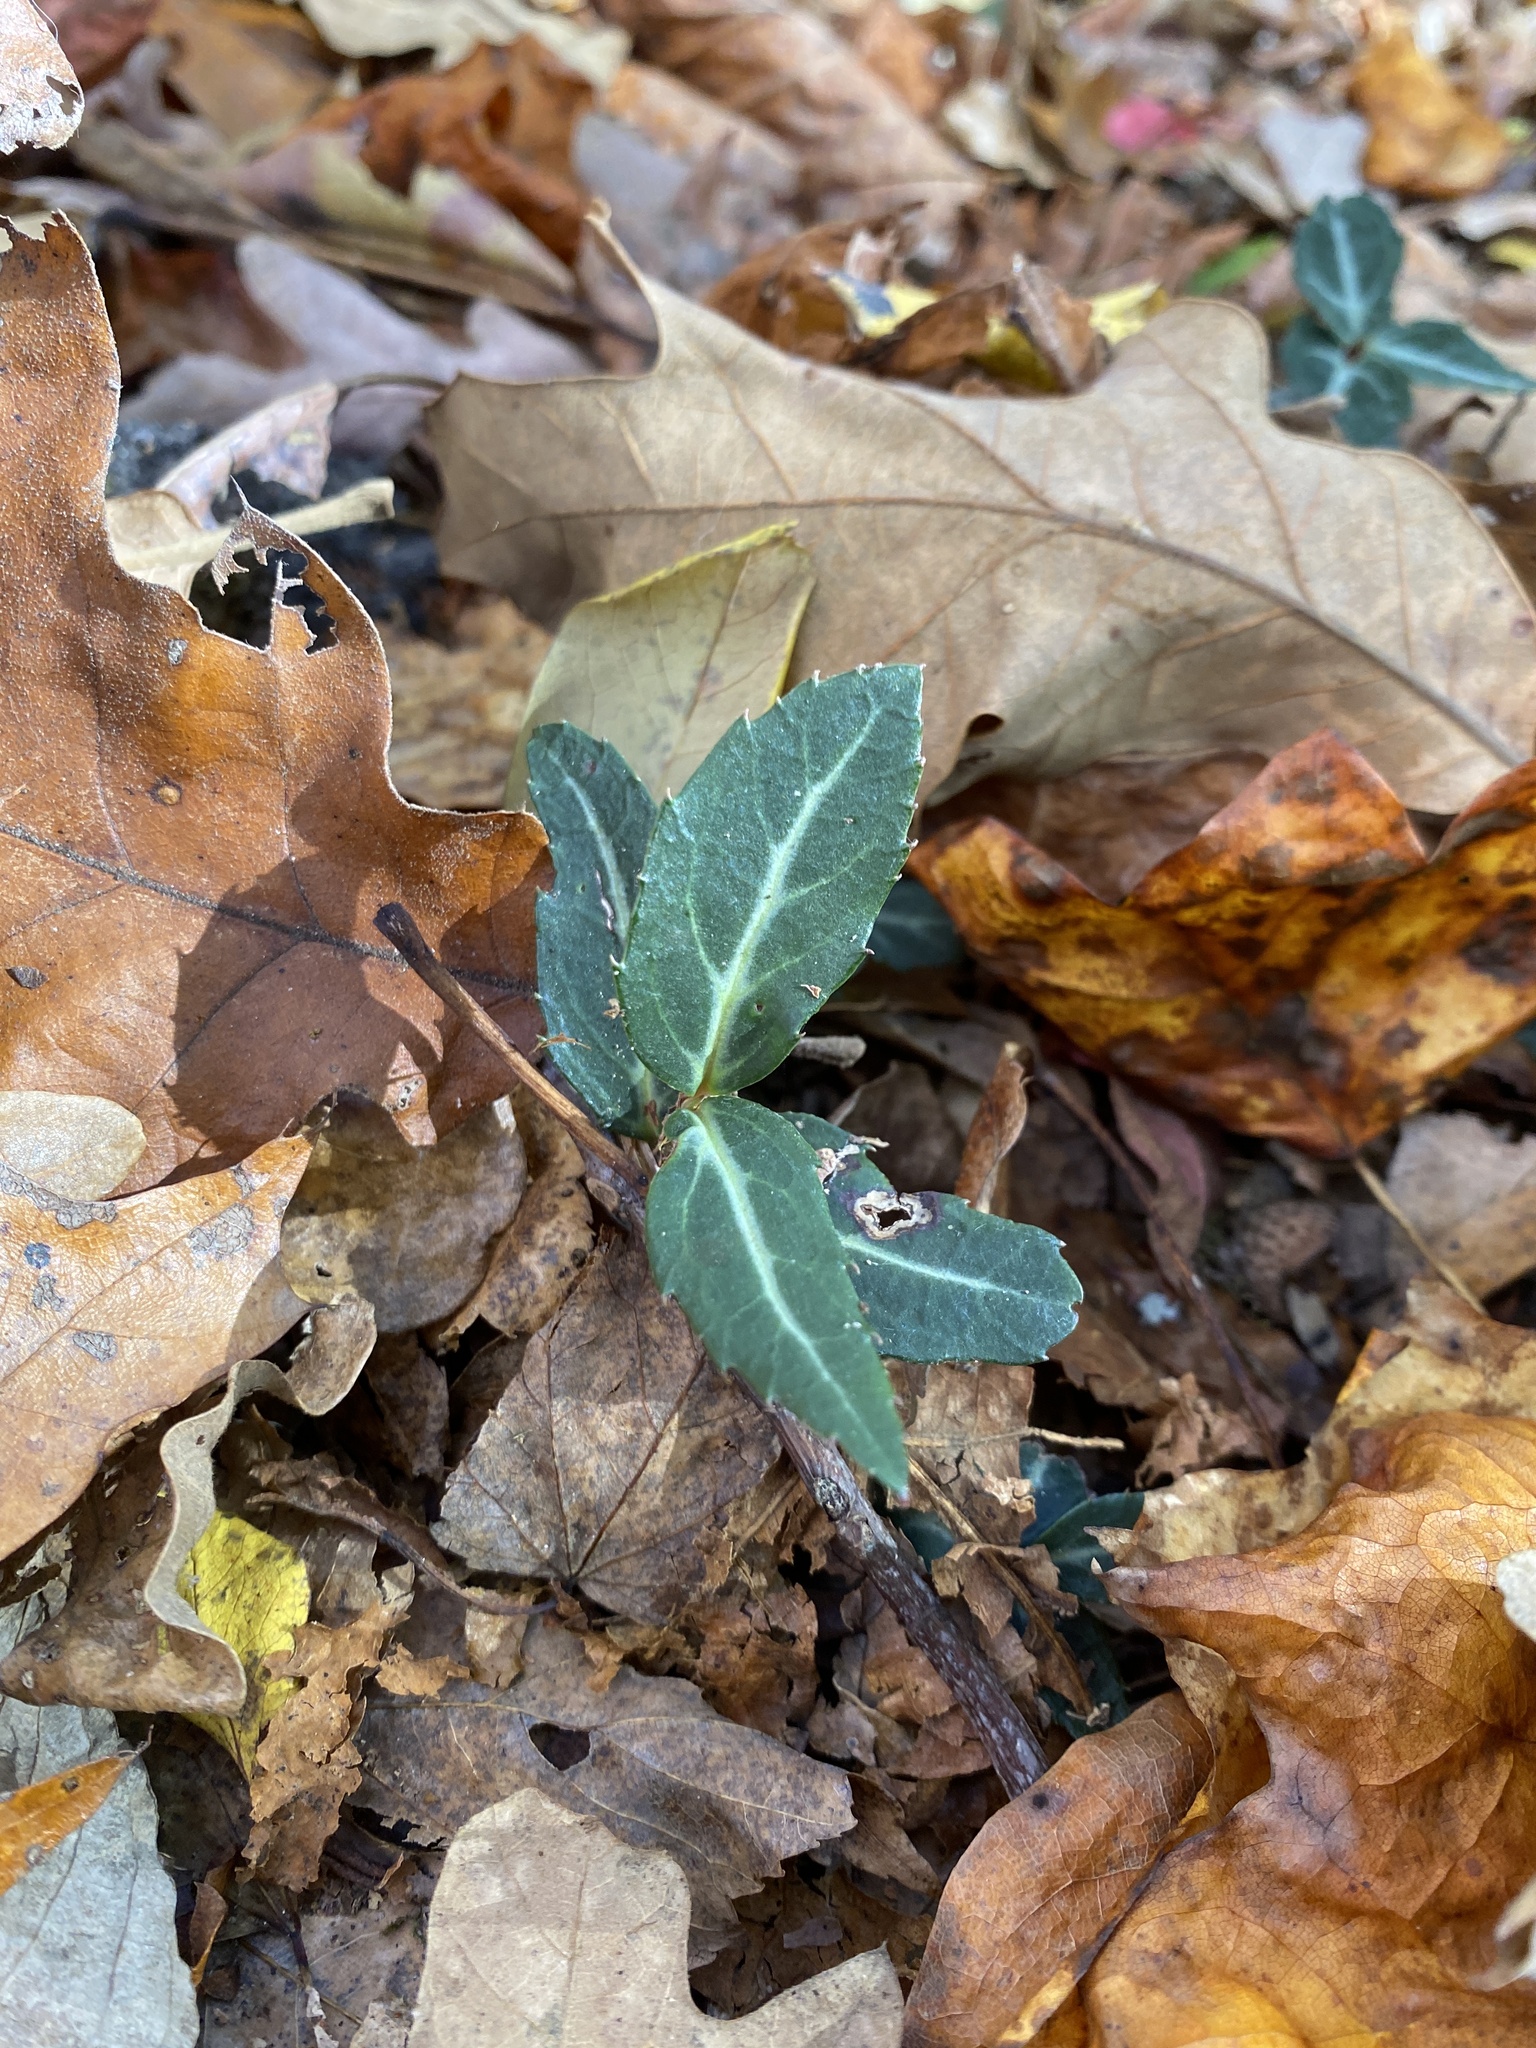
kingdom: Plantae
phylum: Tracheophyta
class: Magnoliopsida
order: Celastrales
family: Celastraceae
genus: Euonymus
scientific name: Euonymus fortunei
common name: Climbing euonymus
